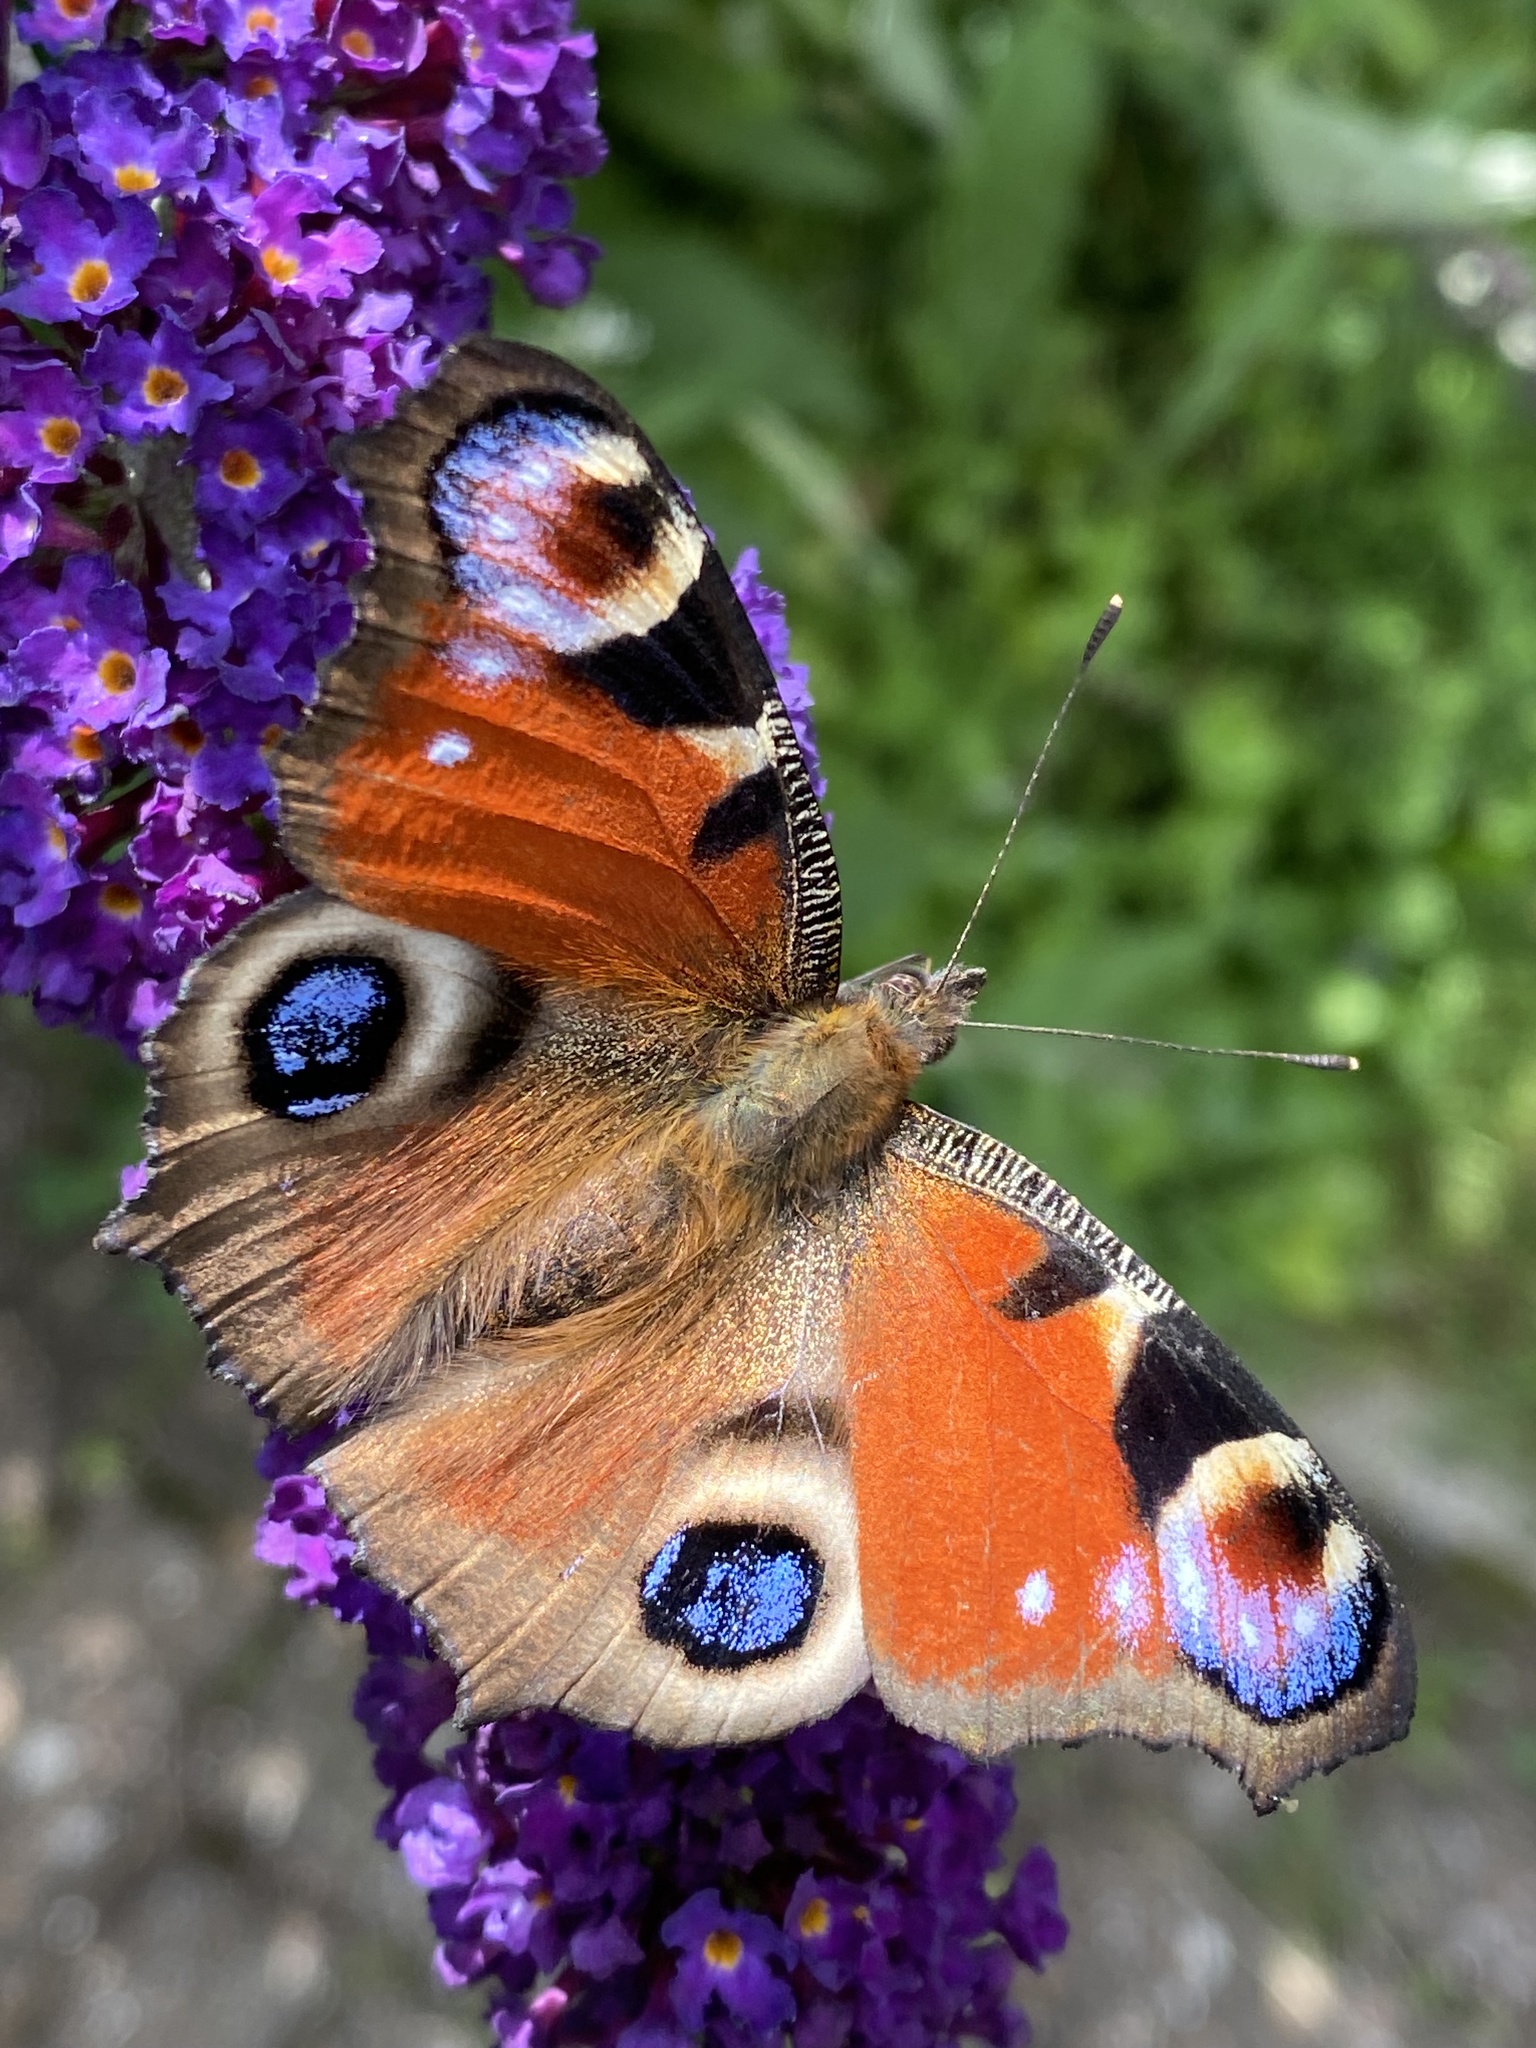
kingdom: Animalia
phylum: Arthropoda
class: Insecta
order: Lepidoptera
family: Nymphalidae
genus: Aglais
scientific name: Aglais io
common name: Peacock
